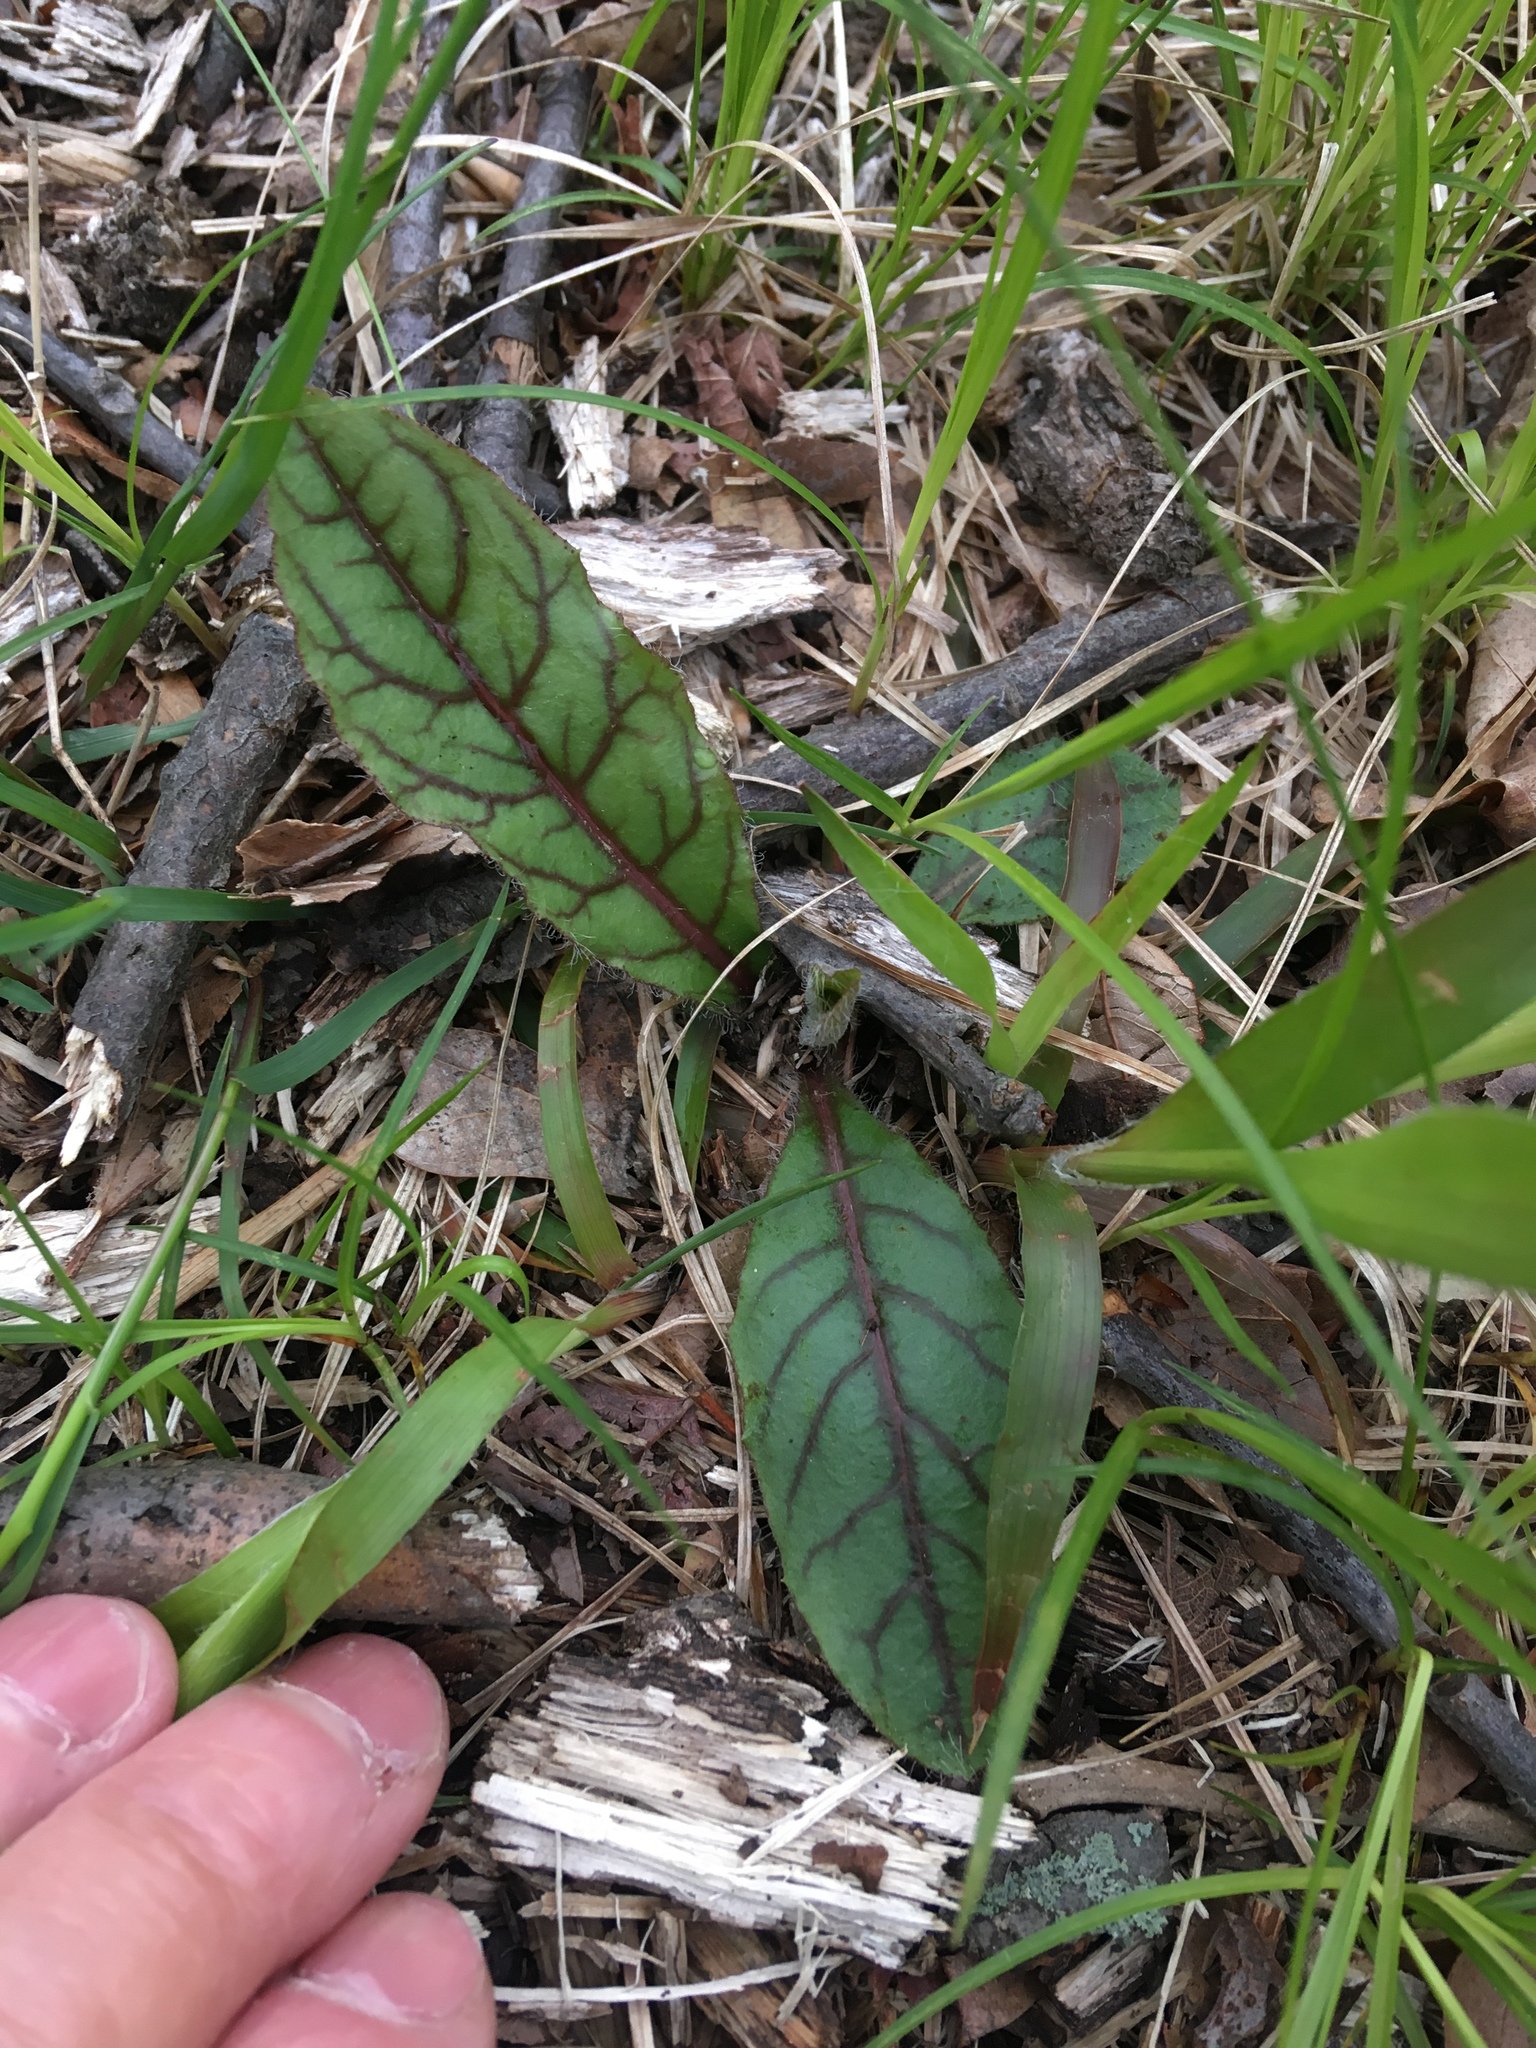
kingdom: Plantae
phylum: Tracheophyta
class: Magnoliopsida
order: Asterales
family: Asteraceae
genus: Hieracium
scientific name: Hieracium venosum
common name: Rattlesnake hawkweed
